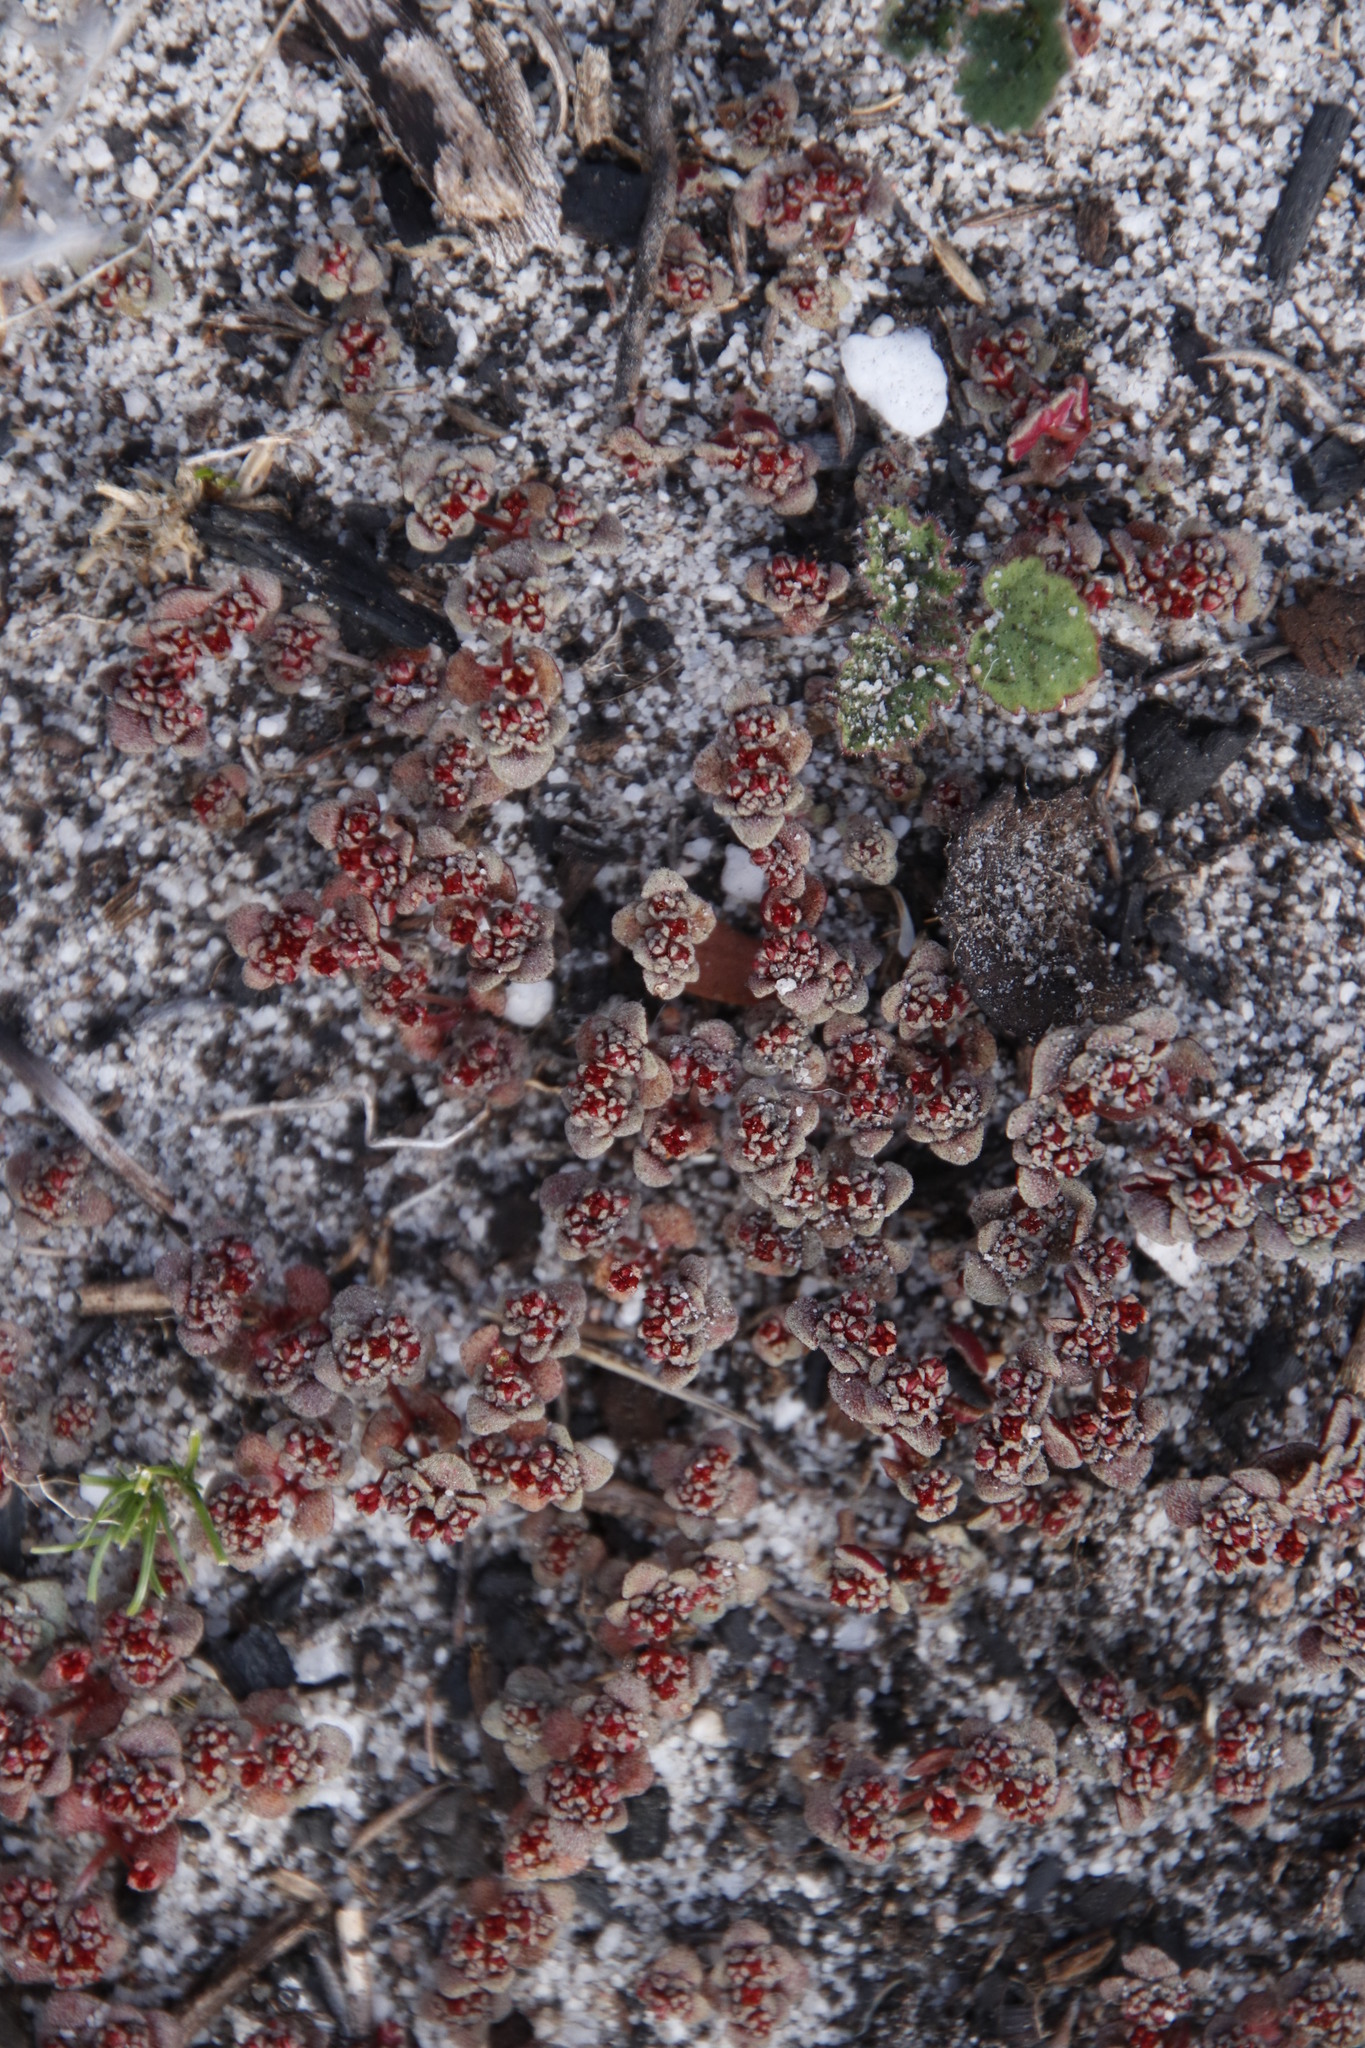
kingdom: Plantae
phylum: Tracheophyta
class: Magnoliopsida
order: Saxifragales
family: Crassulaceae
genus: Crassula
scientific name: Crassula umbellata
